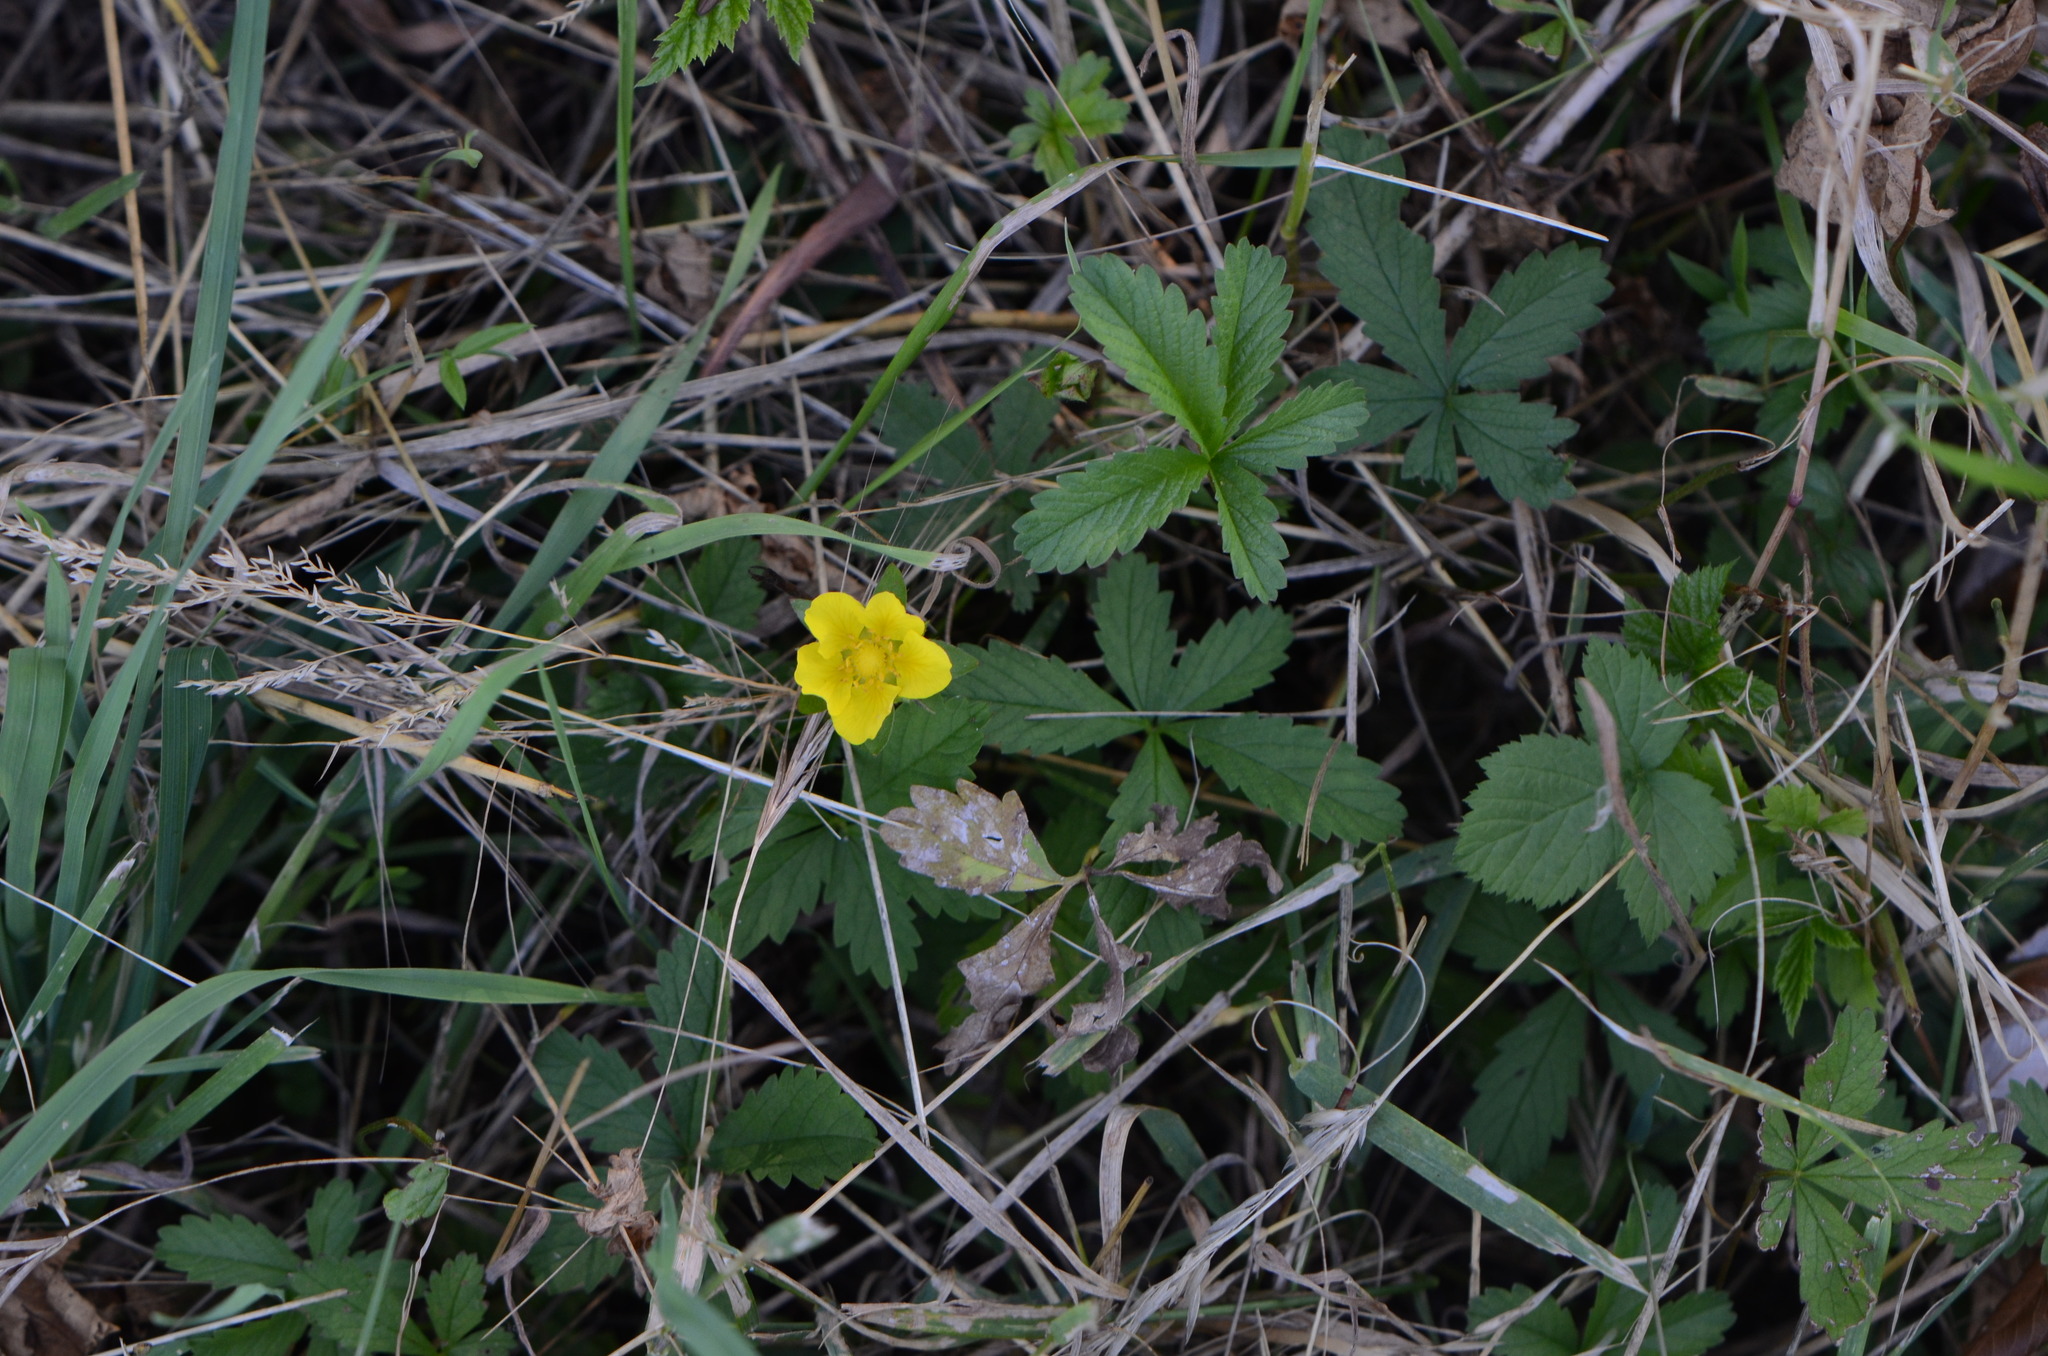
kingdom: Plantae
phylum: Tracheophyta
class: Magnoliopsida
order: Rosales
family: Rosaceae
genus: Potentilla
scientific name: Potentilla reptans
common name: Creeping cinquefoil
